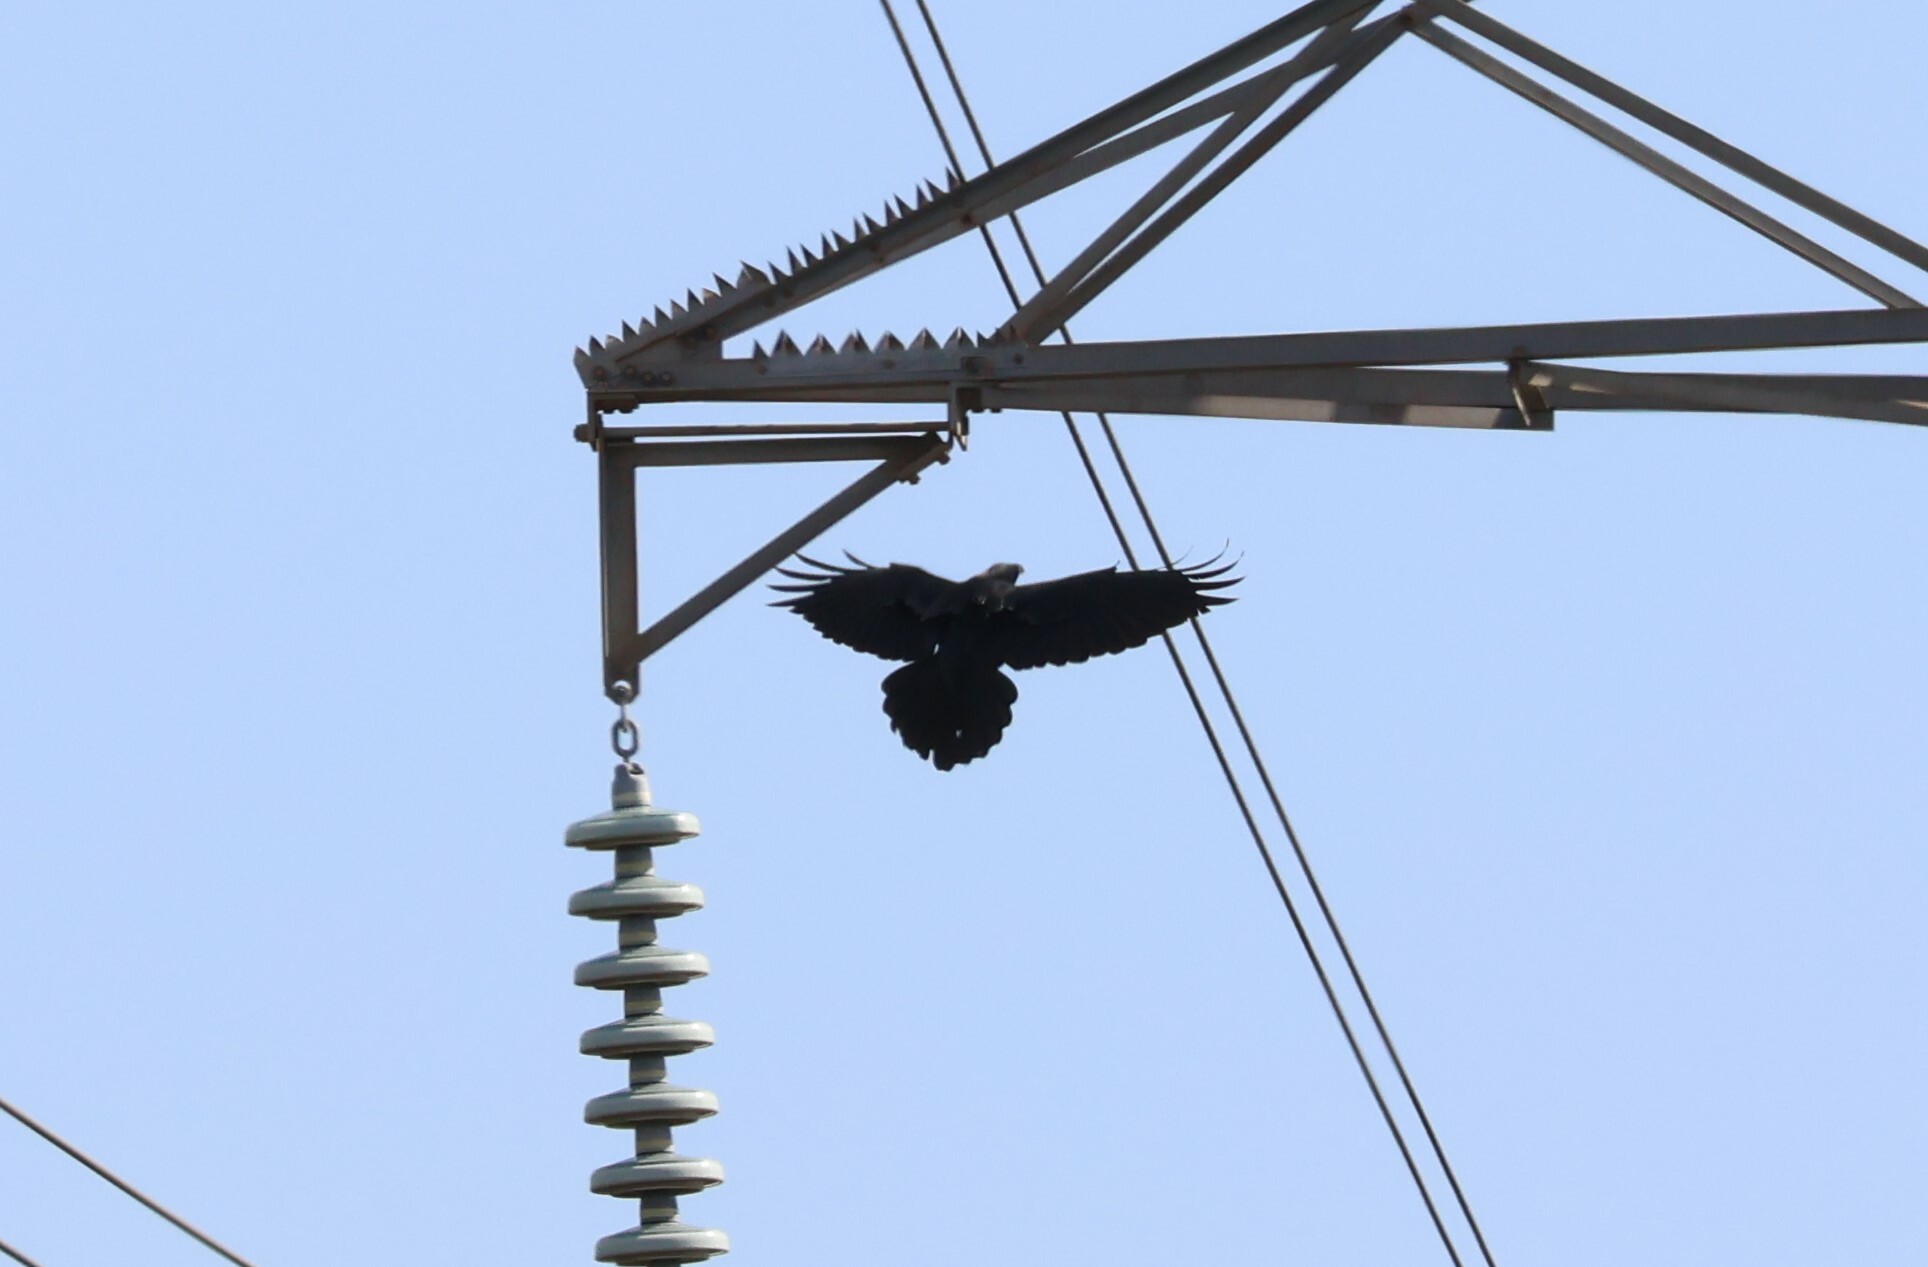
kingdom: Animalia
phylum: Chordata
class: Aves
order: Passeriformes
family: Corvidae
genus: Corvus
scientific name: Corvus corax
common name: Common raven
